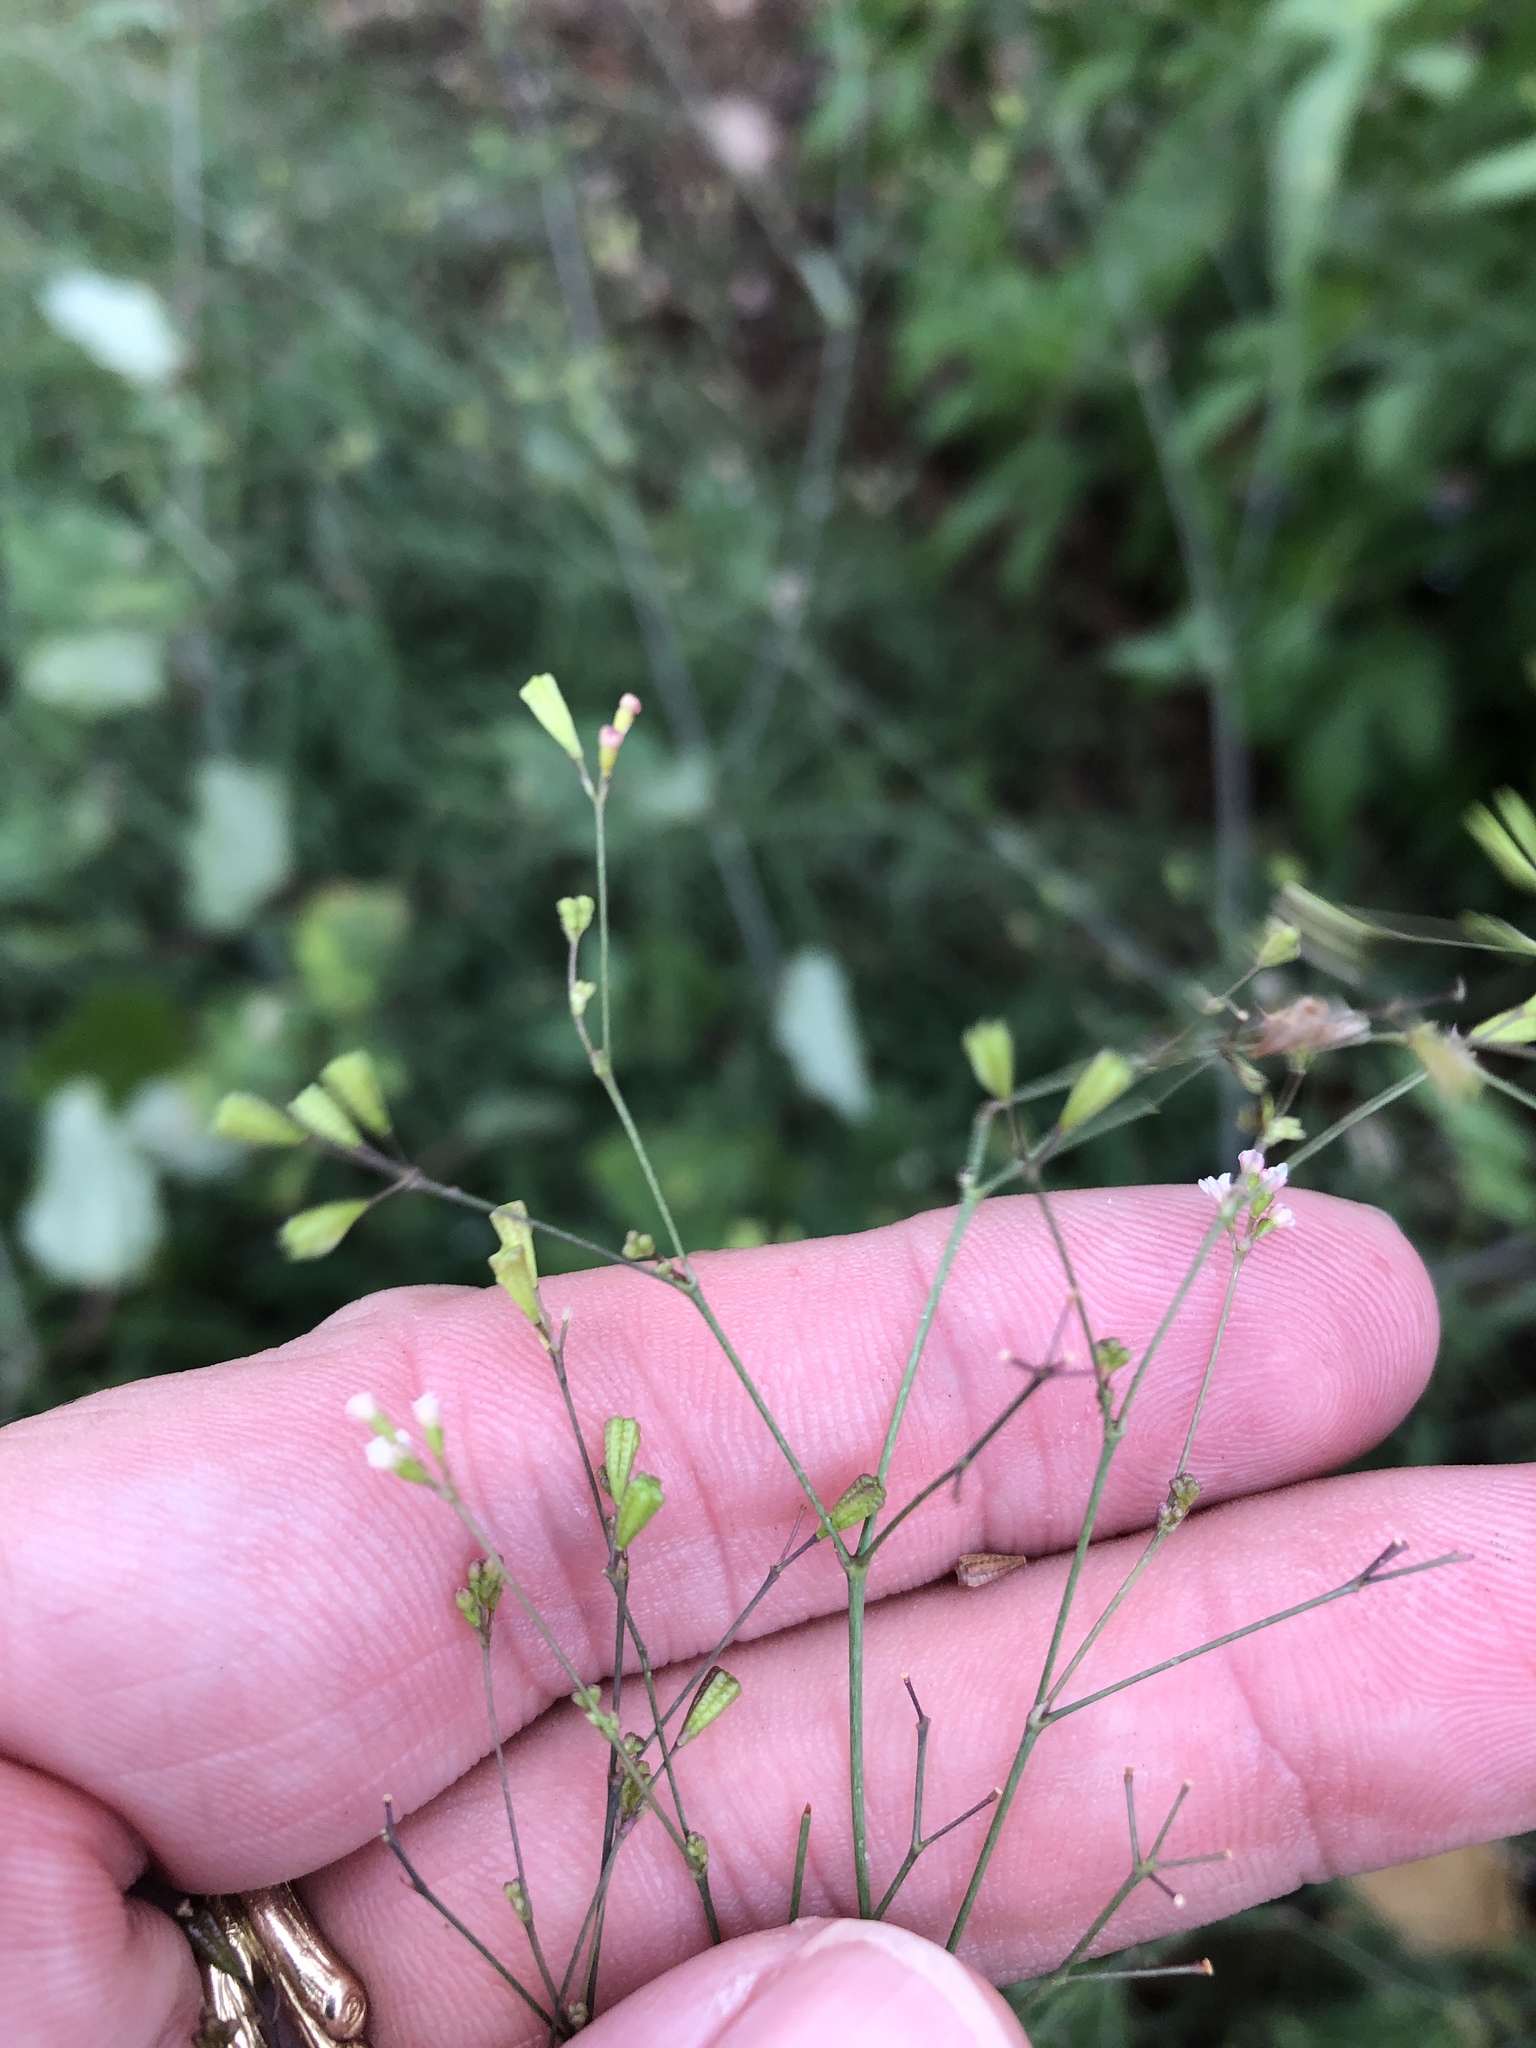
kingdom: Plantae
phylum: Tracheophyta
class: Magnoliopsida
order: Caryophyllales
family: Nyctaginaceae
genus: Boerhavia
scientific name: Boerhavia erecta
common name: Erect spiderling
